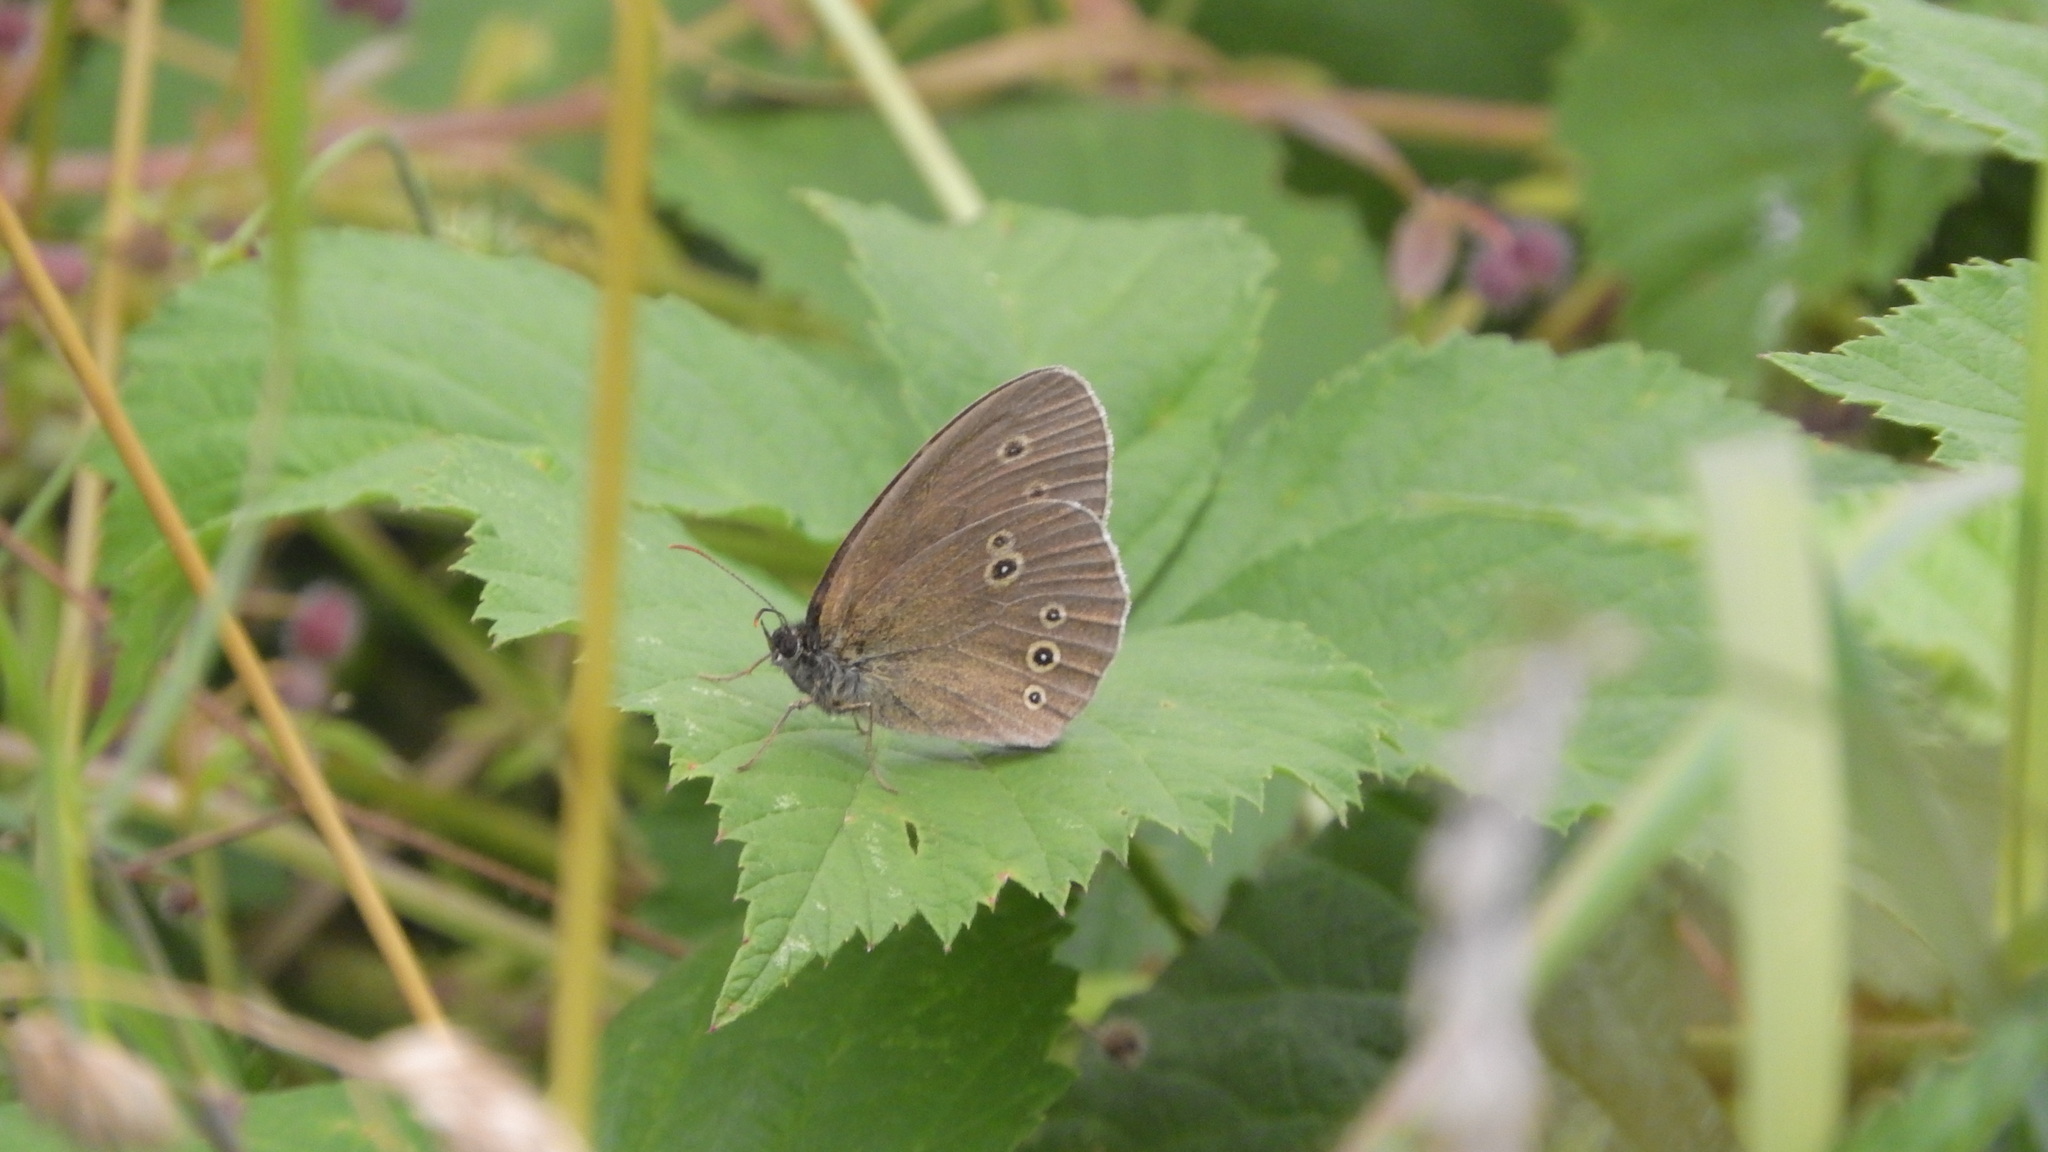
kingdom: Animalia
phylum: Arthropoda
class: Insecta
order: Lepidoptera
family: Nymphalidae
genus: Aphantopus
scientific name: Aphantopus hyperantus
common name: Ringlet
